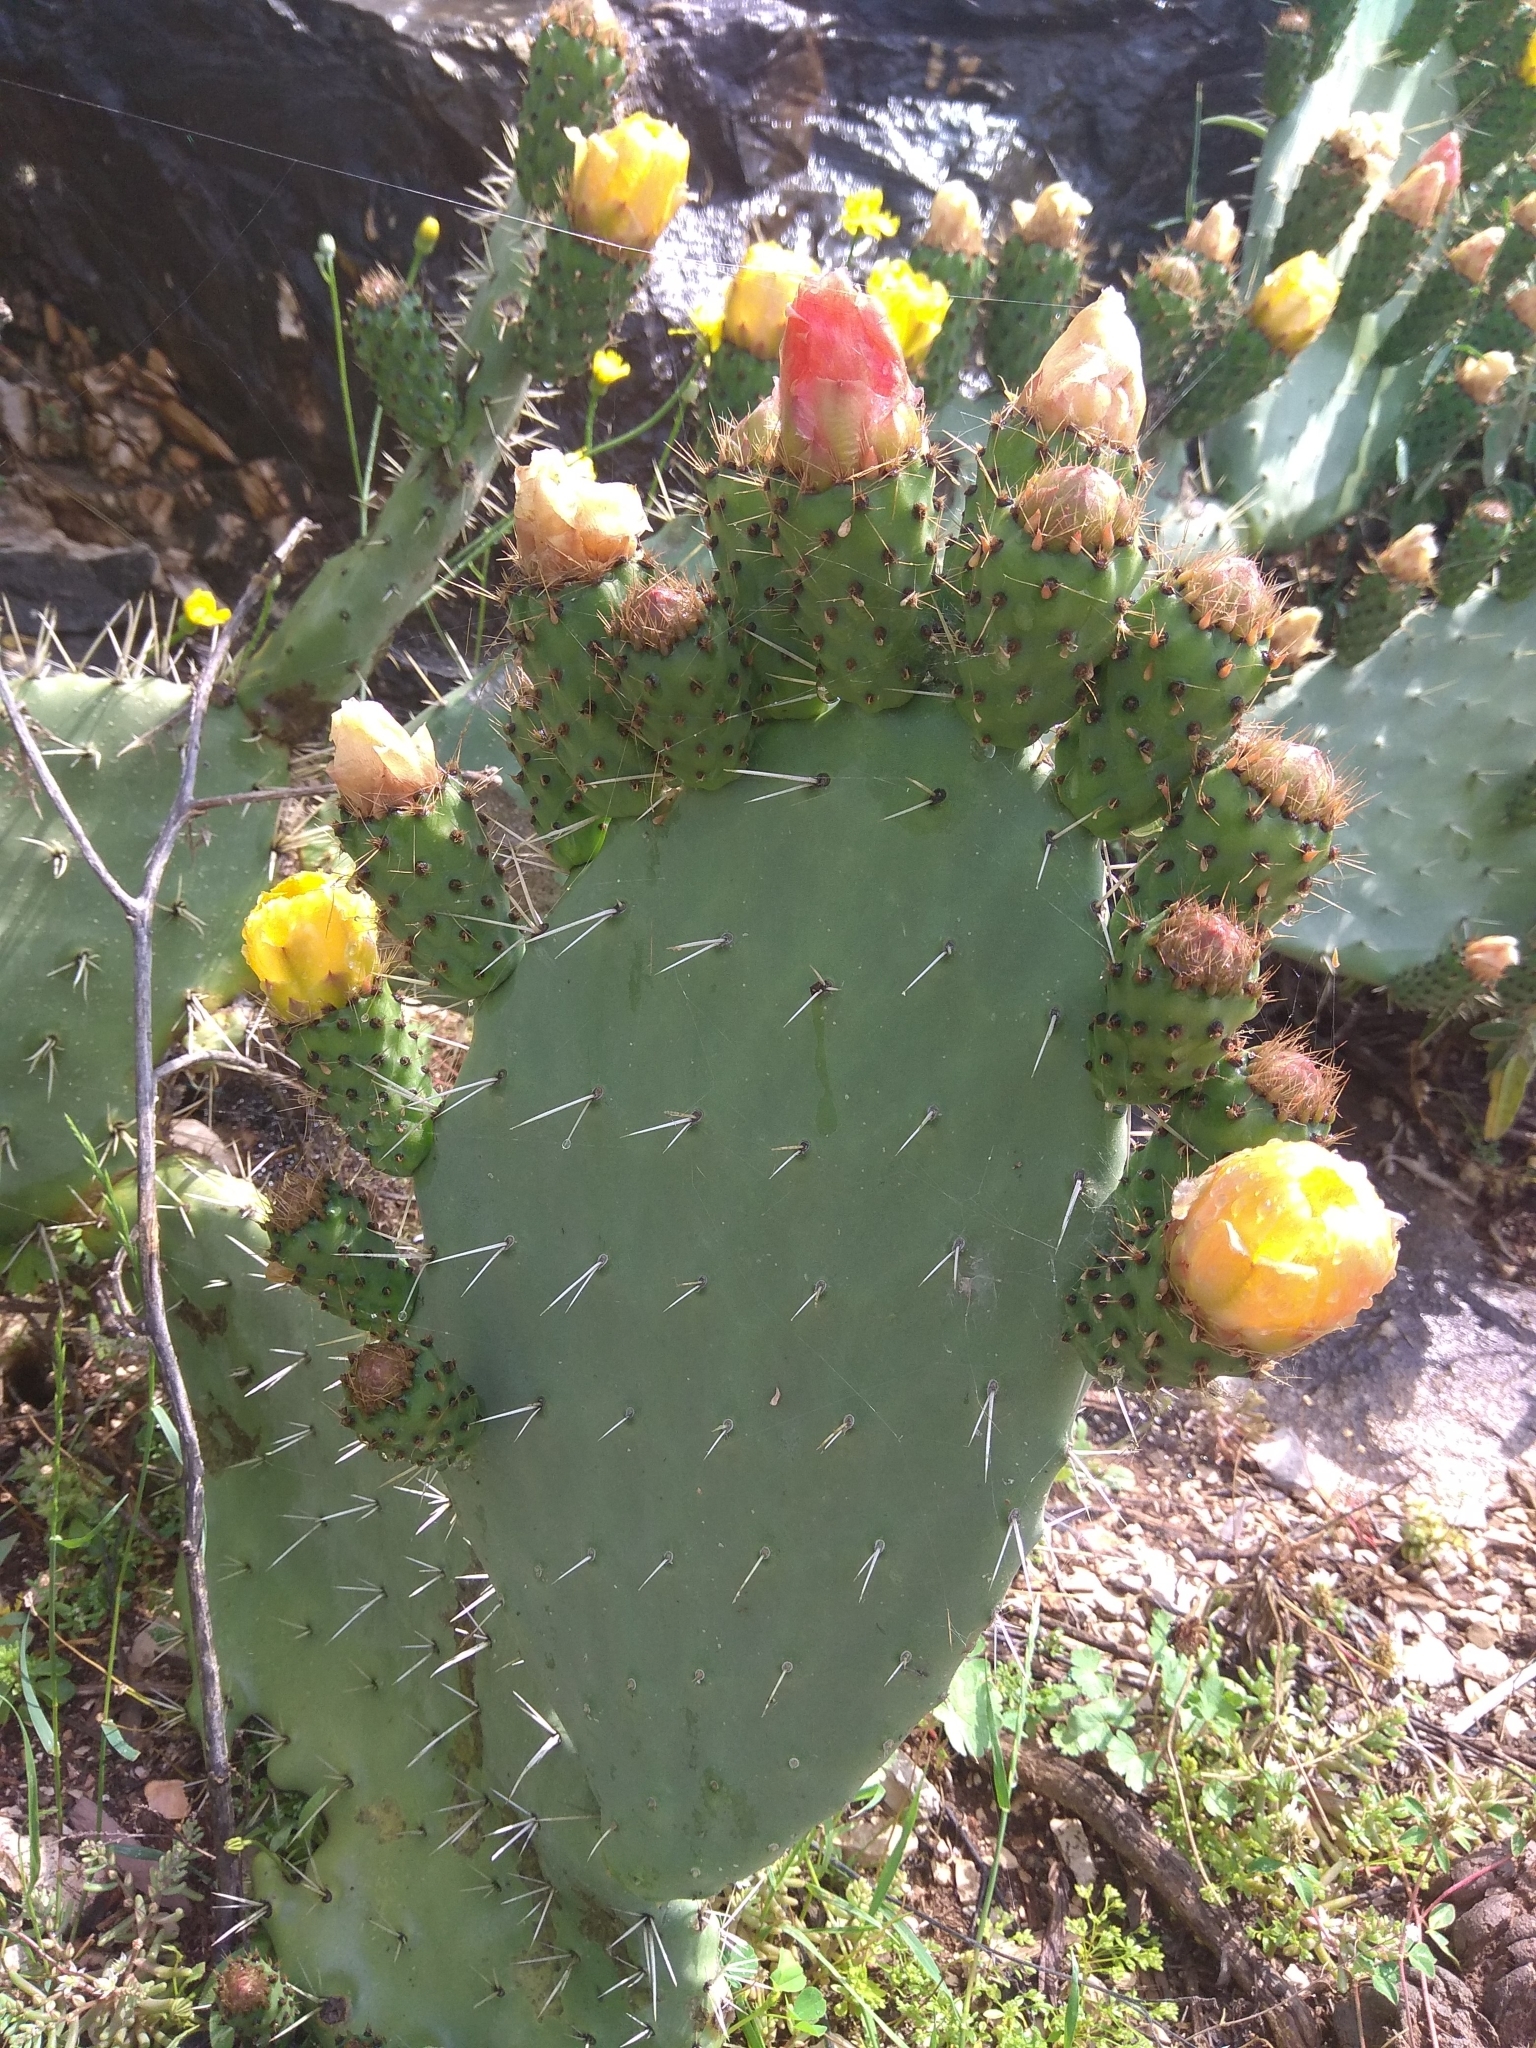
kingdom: Plantae
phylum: Tracheophyta
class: Magnoliopsida
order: Caryophyllales
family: Cactaceae
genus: Opuntia
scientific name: Opuntia ficus-indica
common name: Barbary fig
